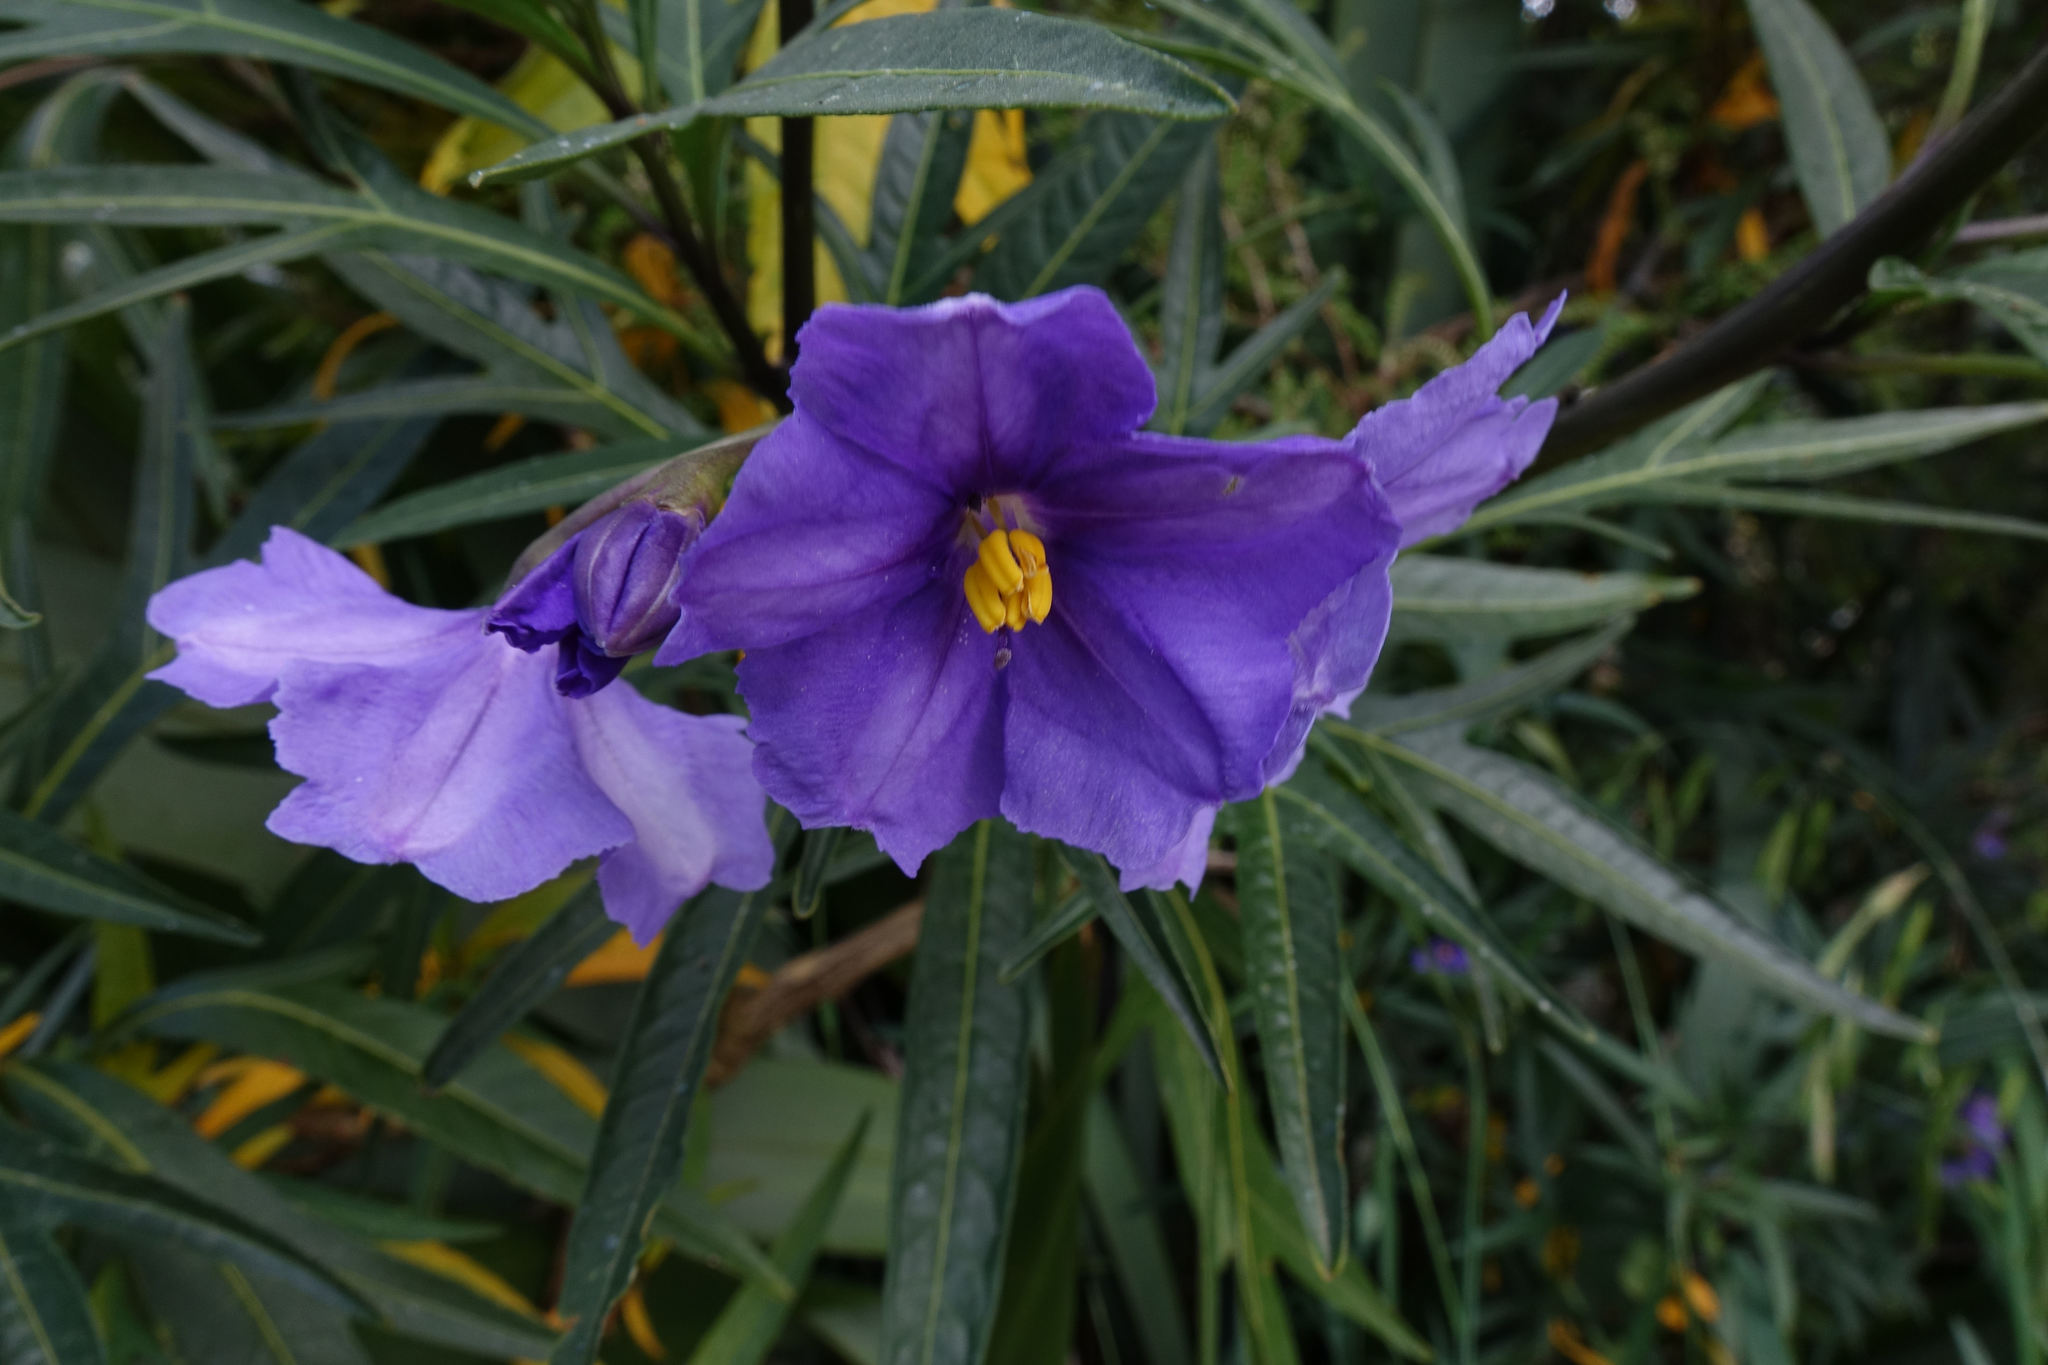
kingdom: Plantae
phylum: Tracheophyta
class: Magnoliopsida
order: Solanales
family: Solanaceae
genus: Solanum
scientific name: Solanum laciniatum
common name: Kangaroo-apple
